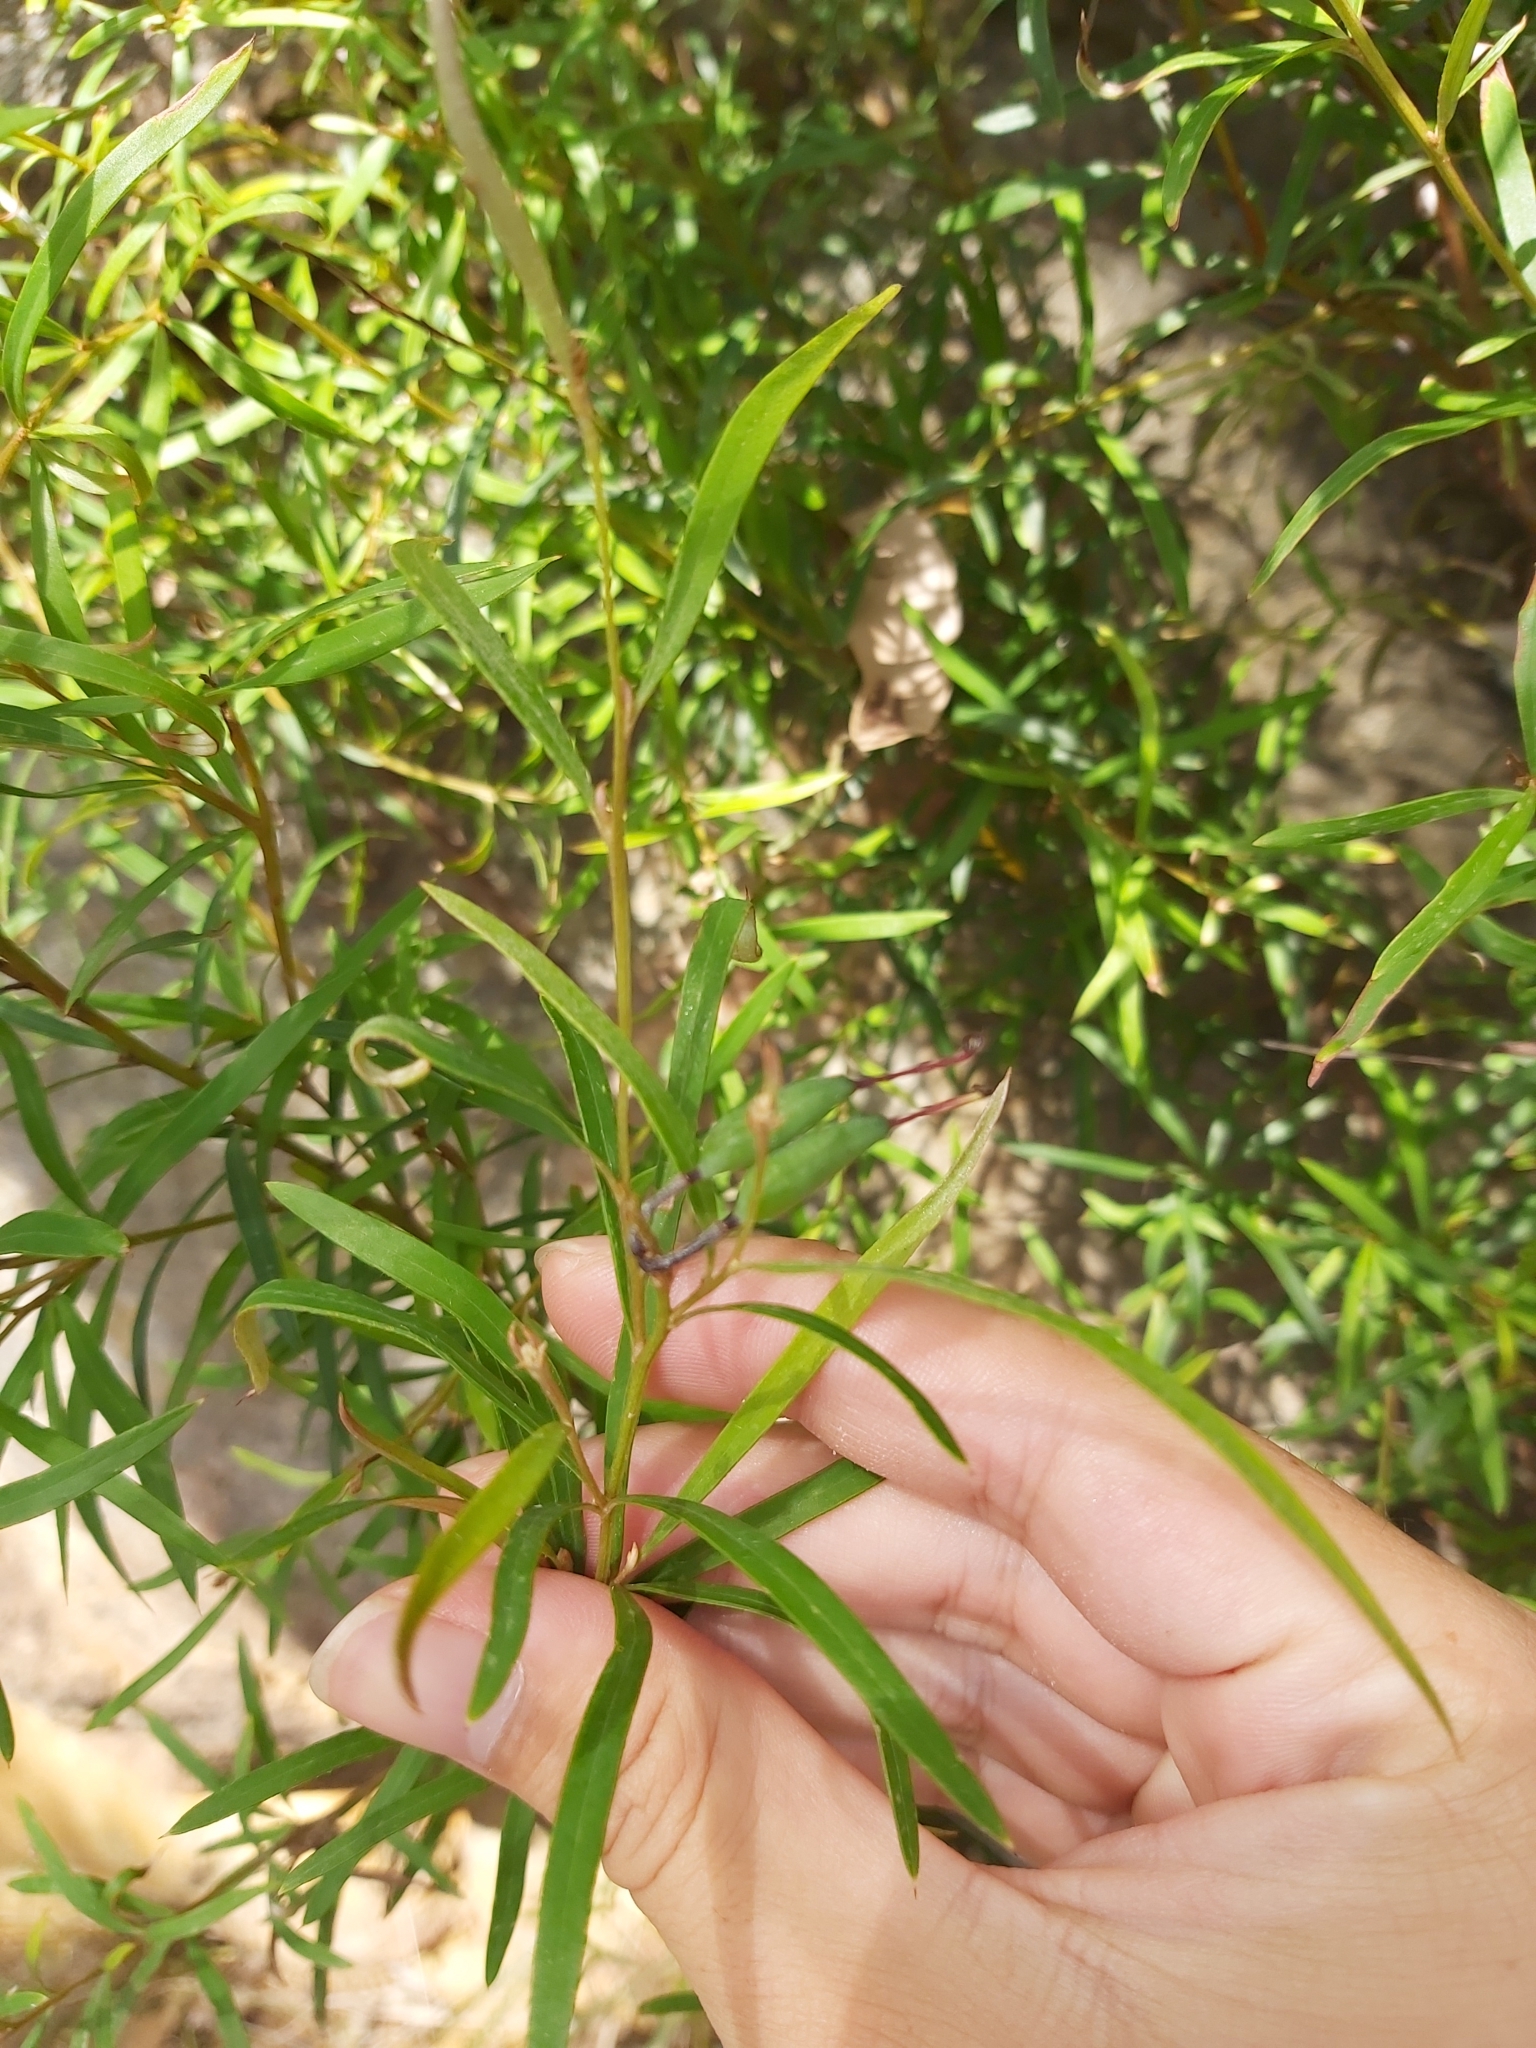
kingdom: Plantae
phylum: Tracheophyta
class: Magnoliopsida
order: Proteales
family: Proteaceae
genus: Grevillea
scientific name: Grevillea linearifolia
